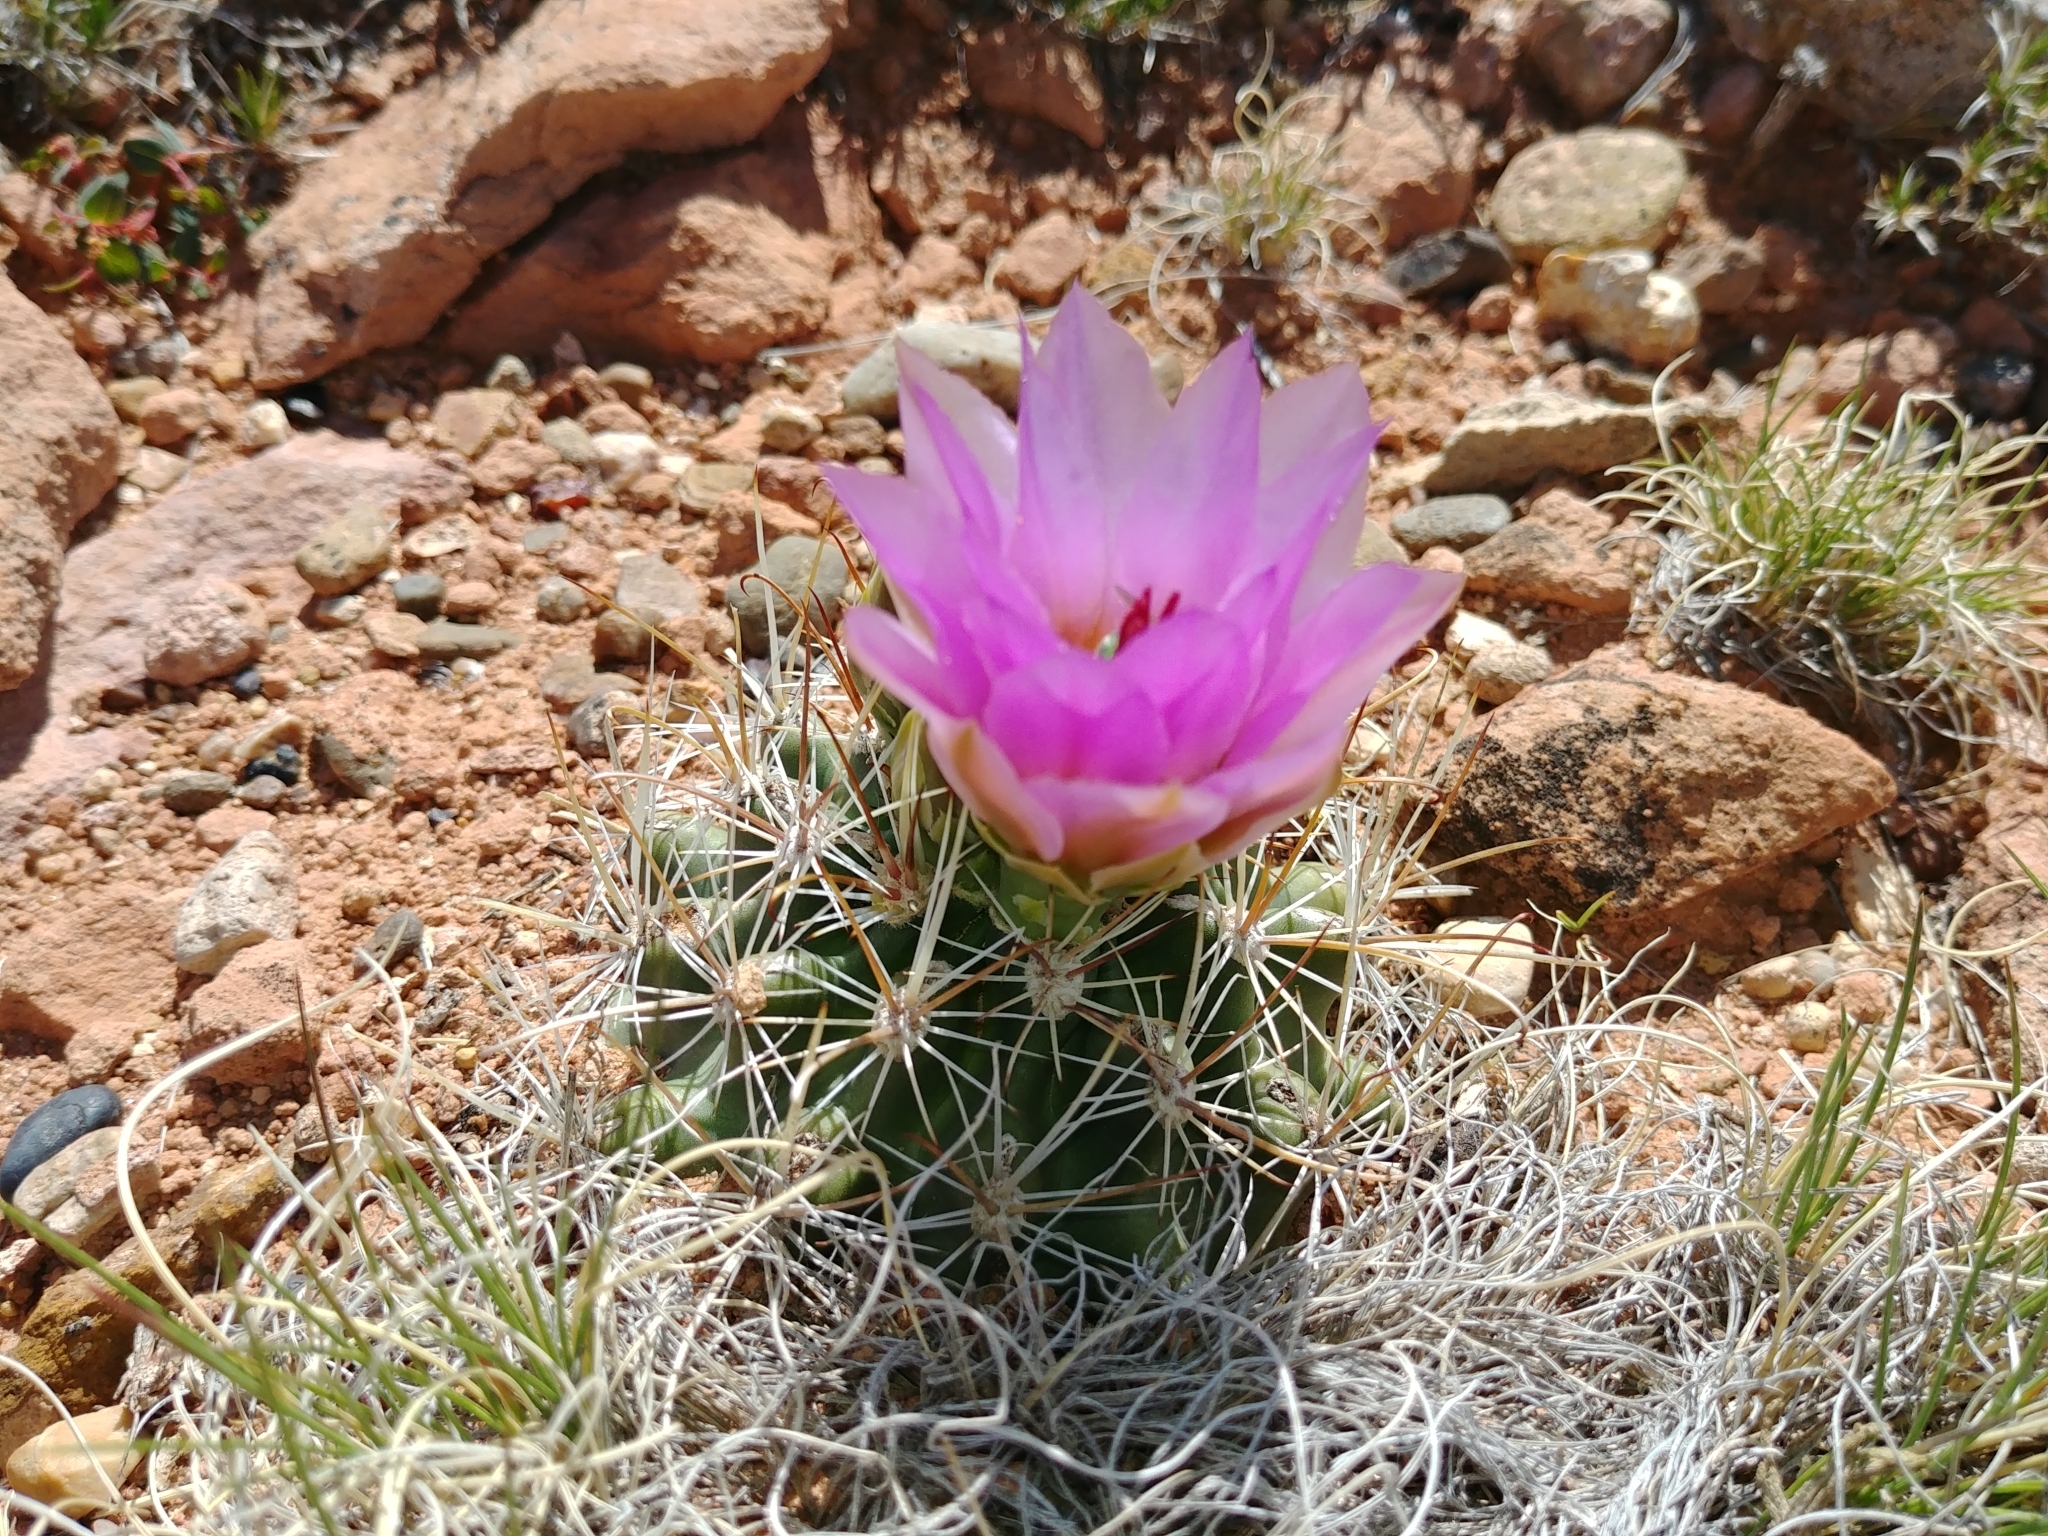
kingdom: Plantae
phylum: Tracheophyta
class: Magnoliopsida
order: Caryophyllales
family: Cactaceae
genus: Sclerocactus
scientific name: Sclerocactus parviflorus
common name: Small-flower fishhook cactus
